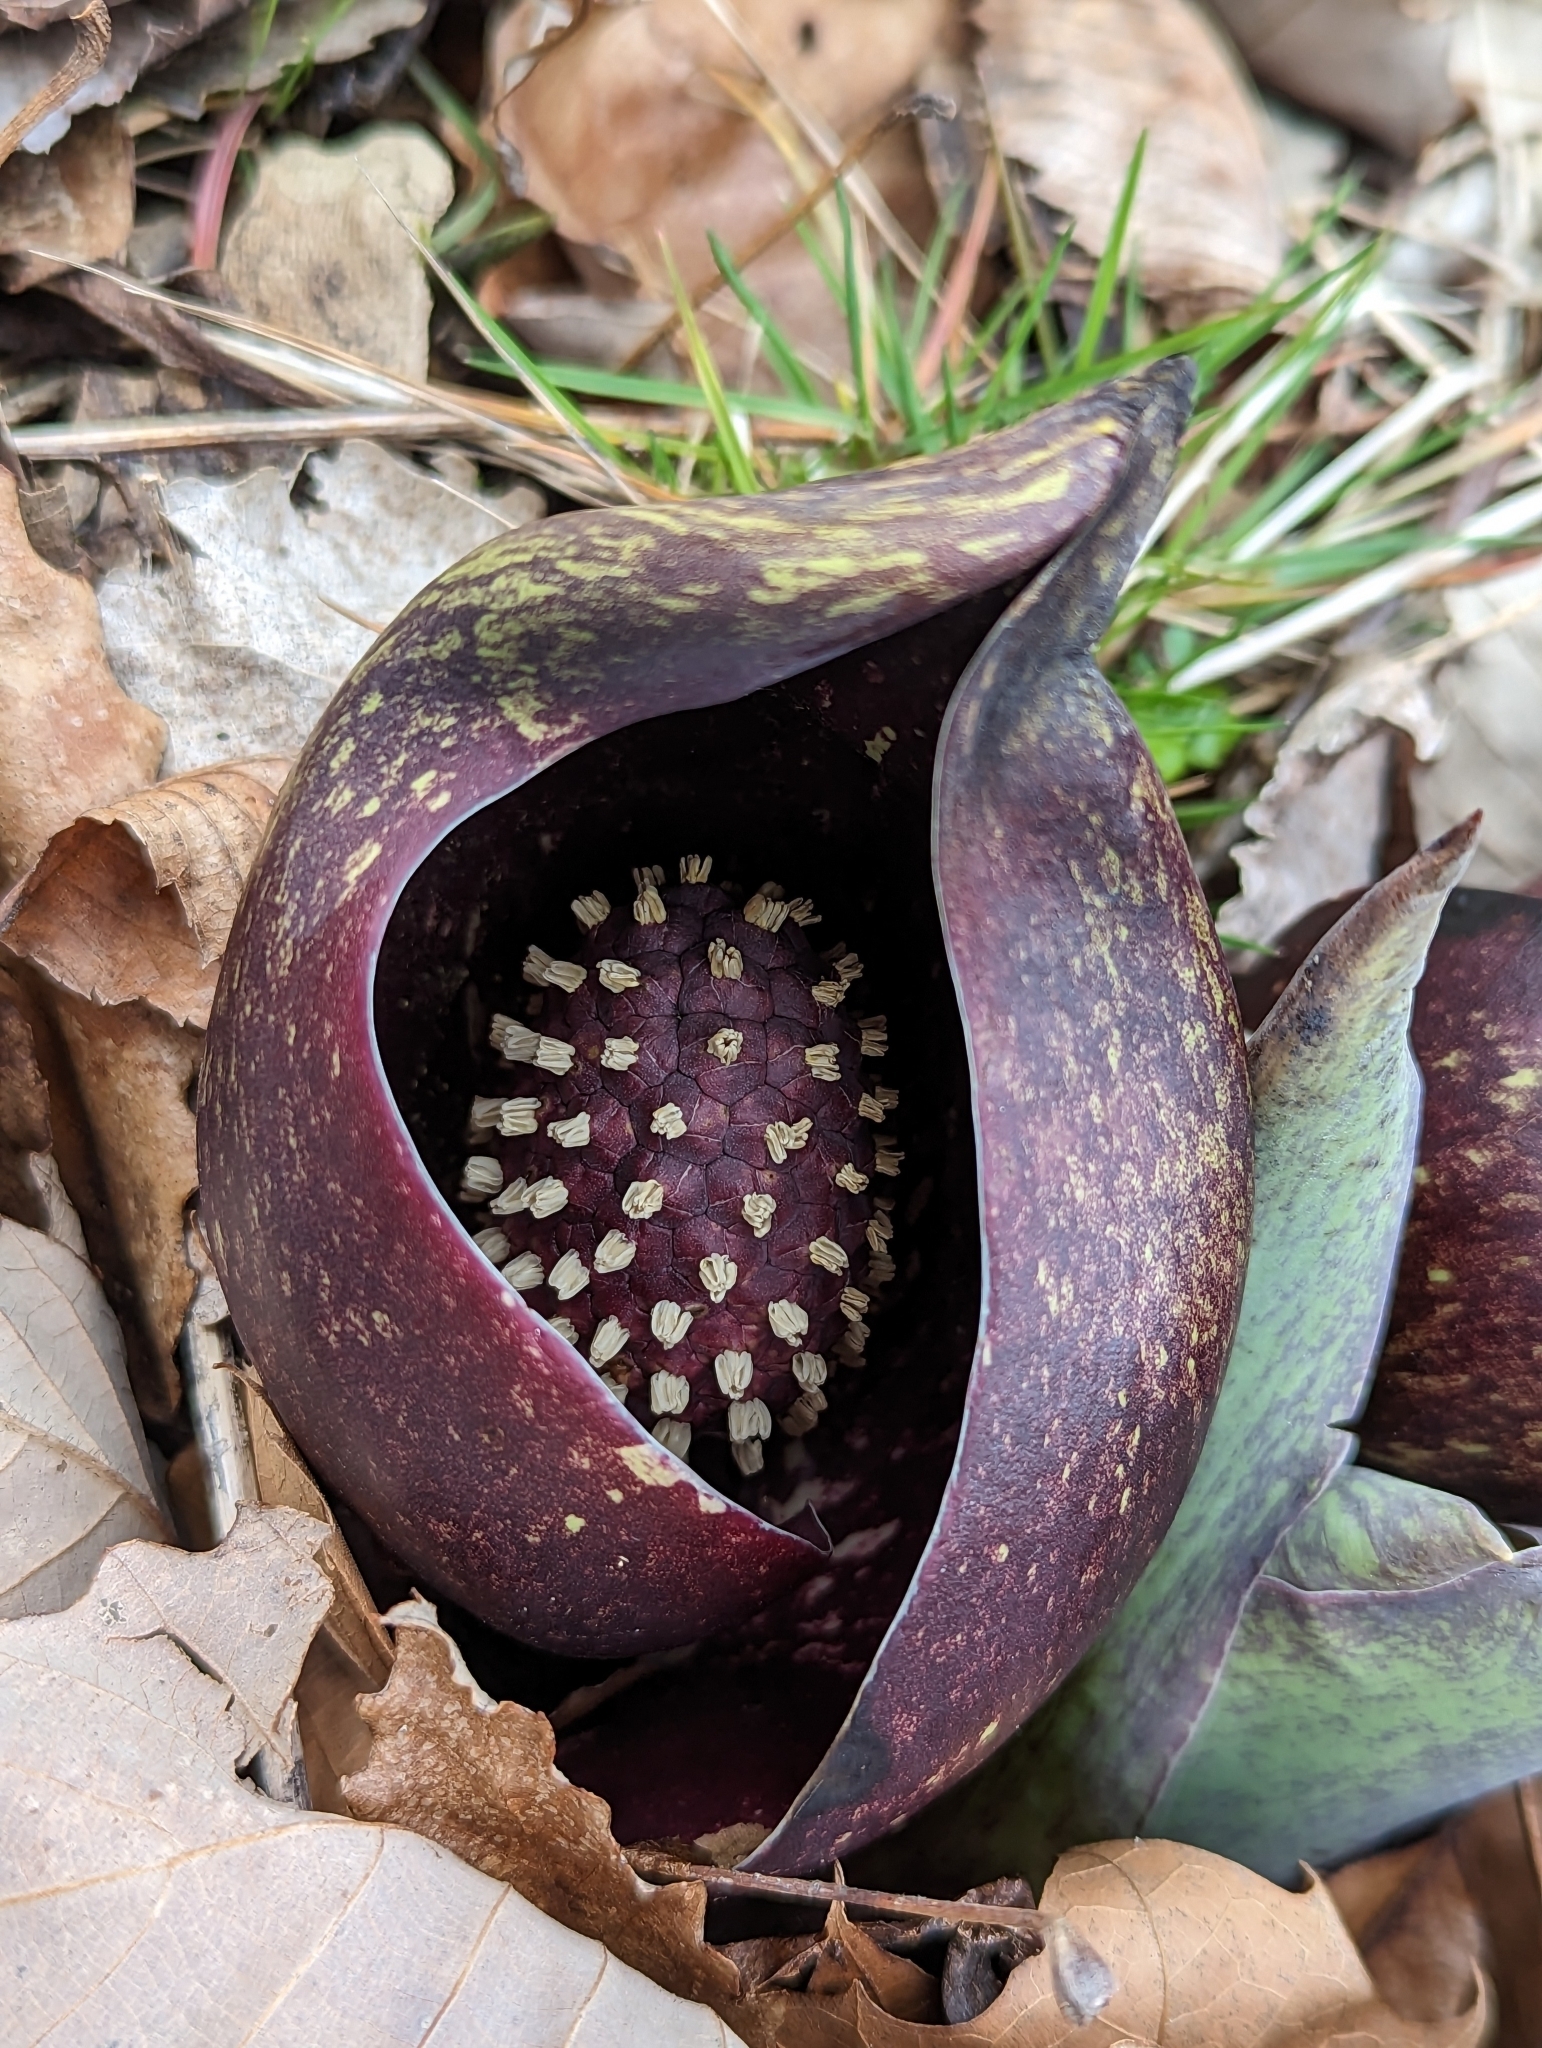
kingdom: Plantae
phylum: Tracheophyta
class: Liliopsida
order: Alismatales
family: Araceae
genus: Symplocarpus
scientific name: Symplocarpus foetidus
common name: Eastern skunk cabbage
